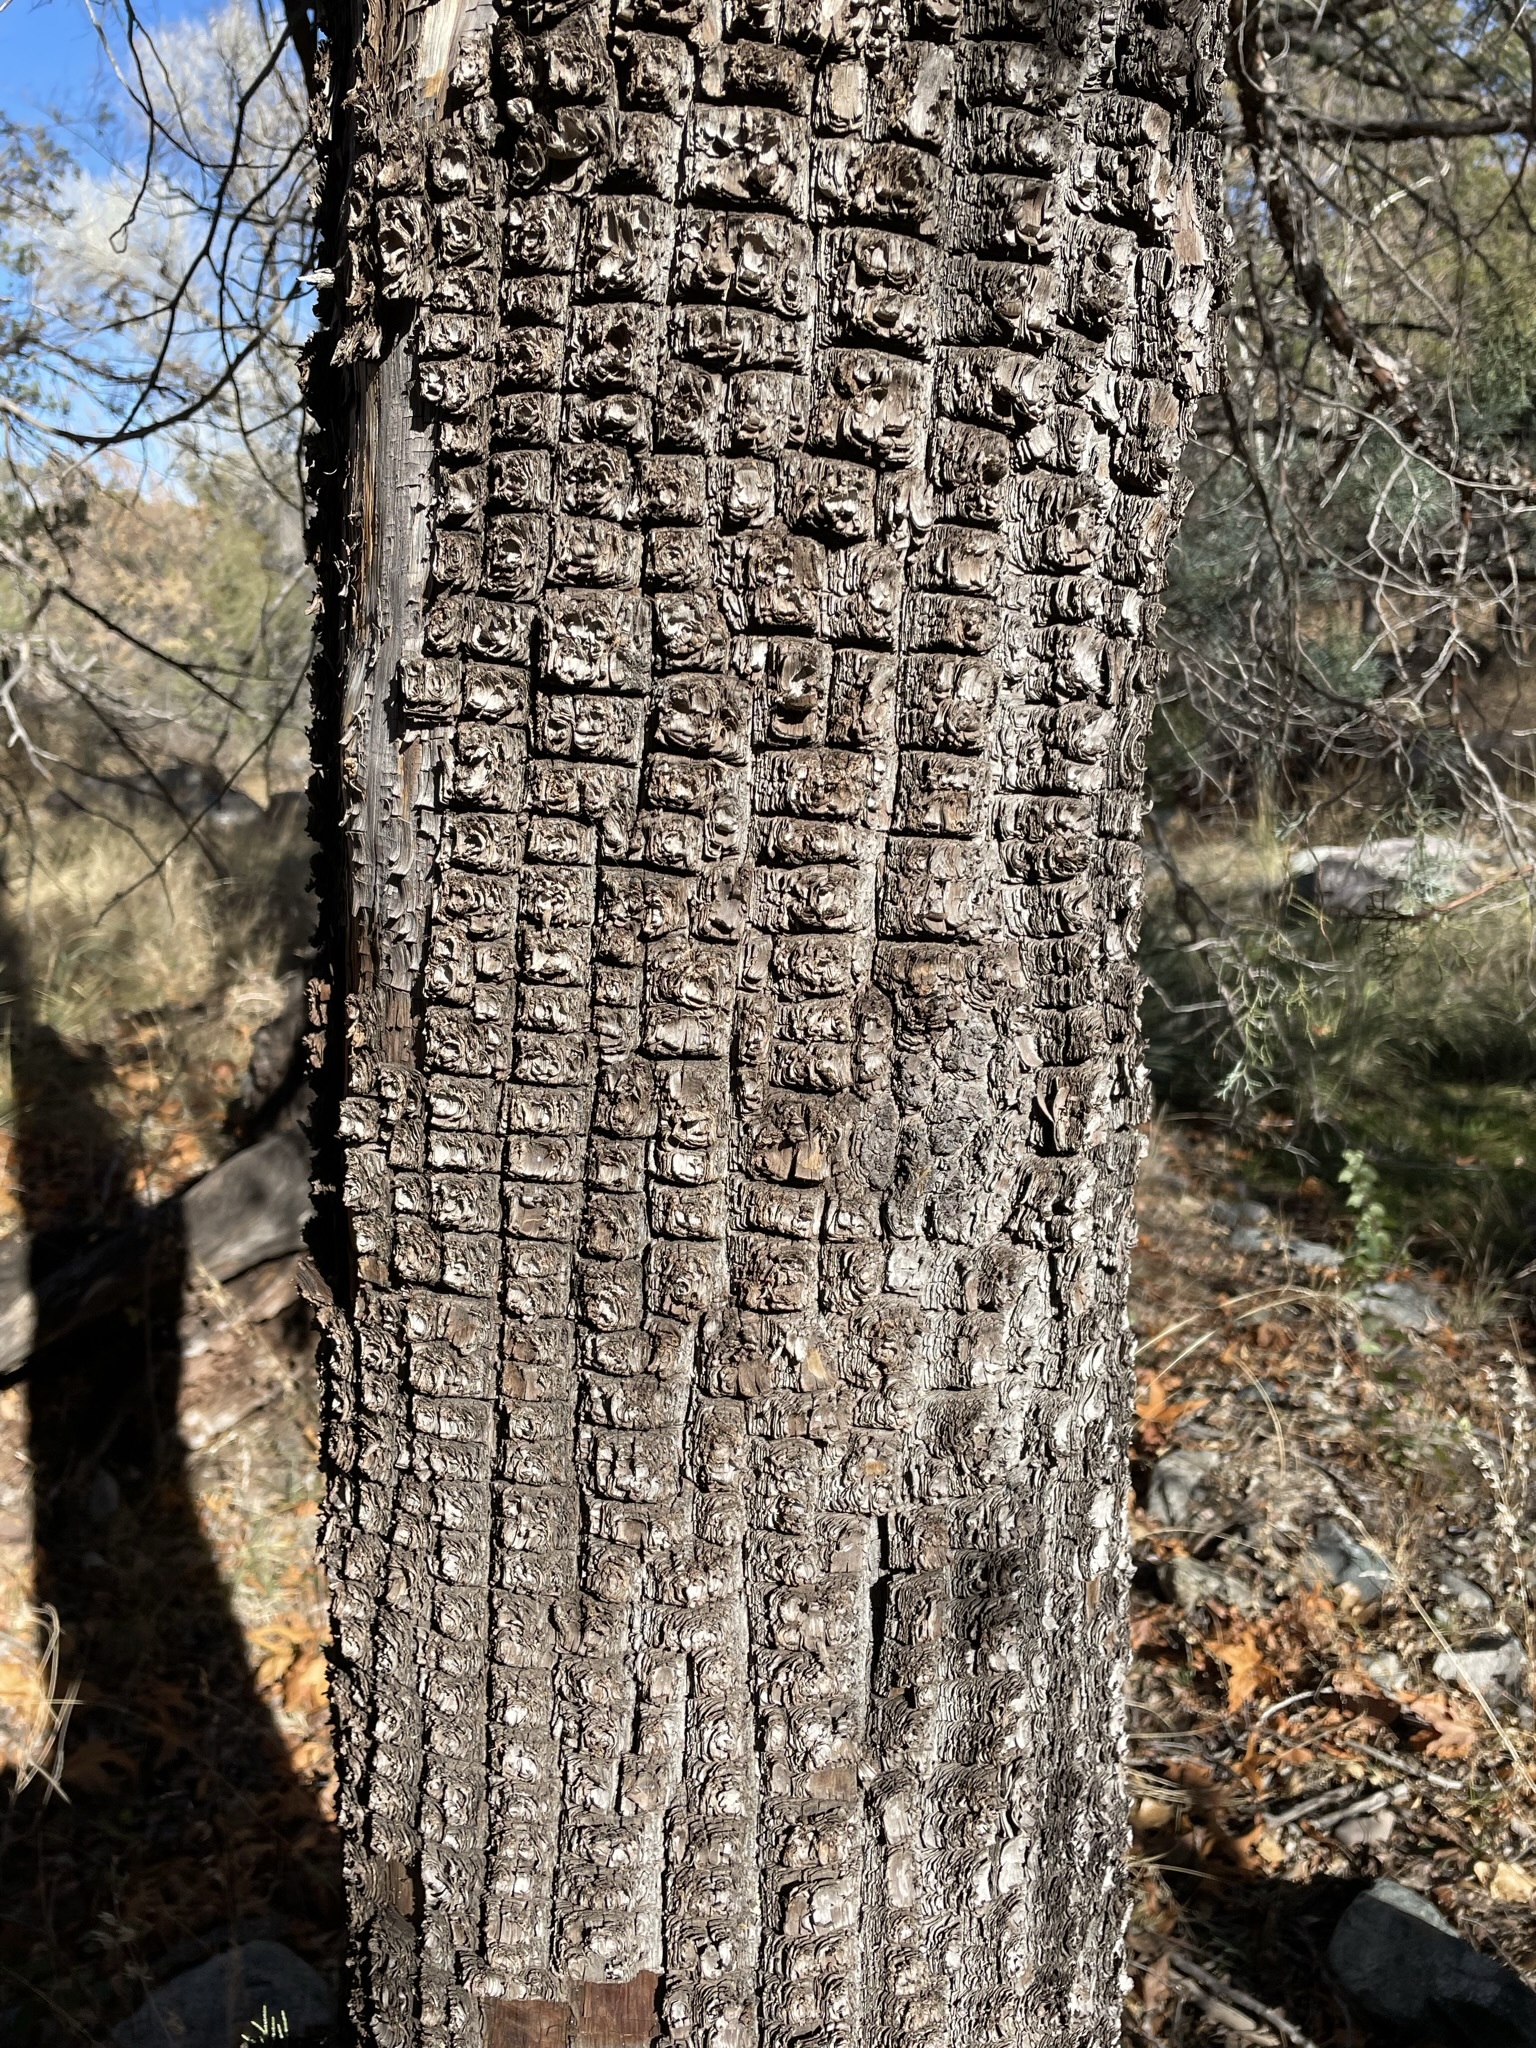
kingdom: Plantae
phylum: Tracheophyta
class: Pinopsida
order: Pinales
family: Cupressaceae
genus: Juniperus
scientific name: Juniperus deppeana
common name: Alligator juniper
